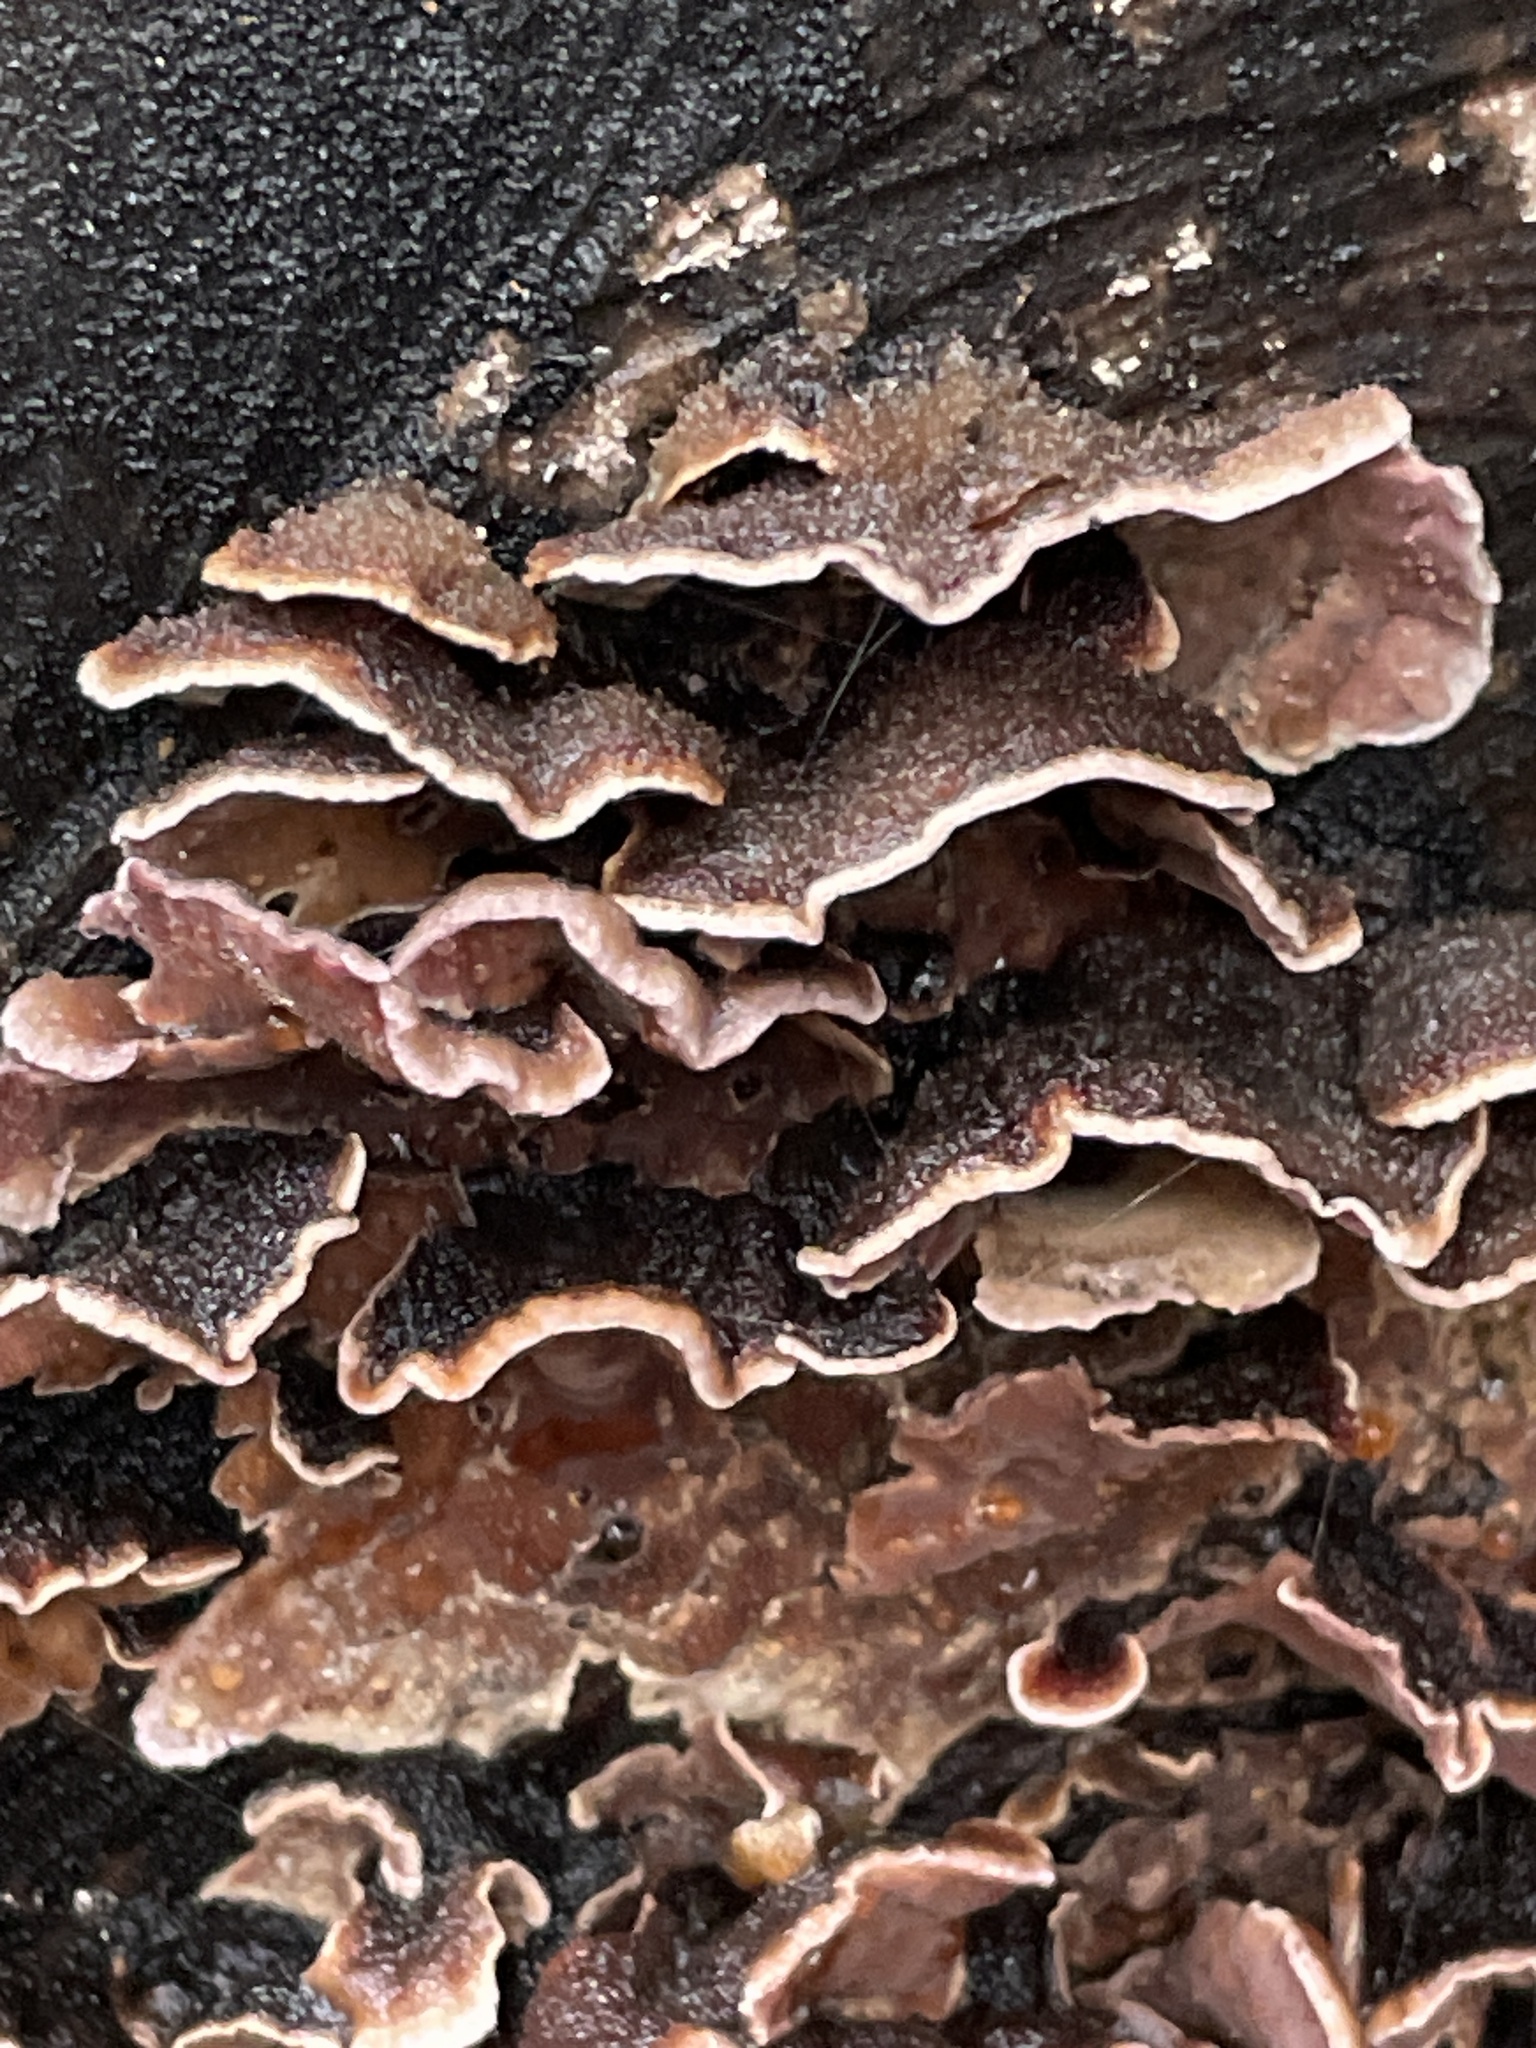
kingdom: Fungi
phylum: Basidiomycota
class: Agaricomycetes
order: Agaricales
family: Cyphellaceae
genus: Chondrostereum
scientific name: Chondrostereum purpureum
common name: Silver leaf disease
